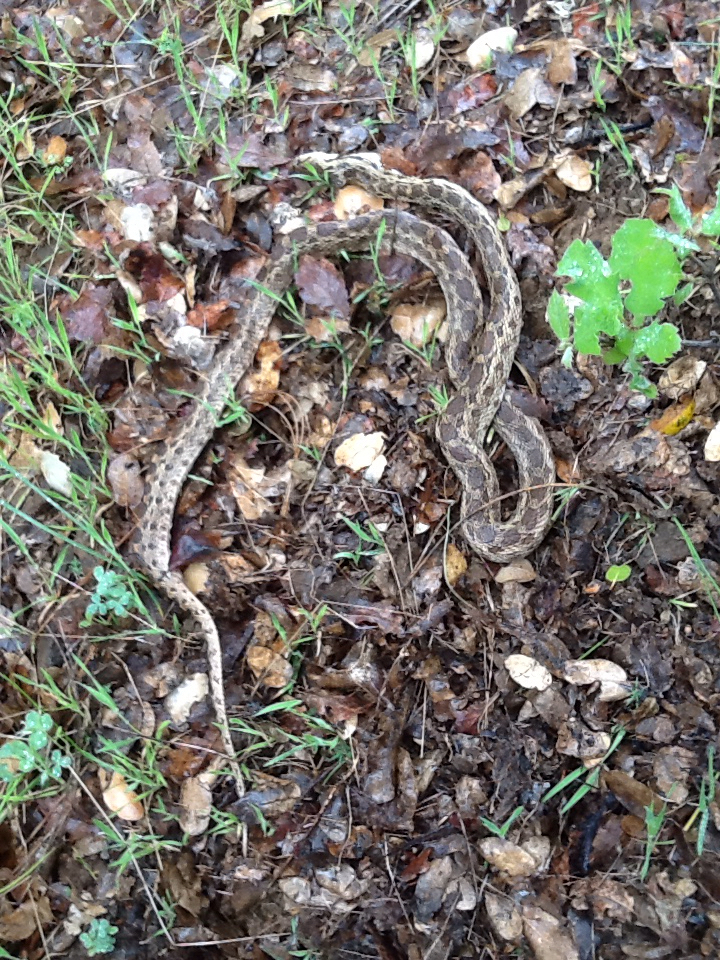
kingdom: Animalia
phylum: Chordata
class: Squamata
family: Colubridae
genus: Pituophis
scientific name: Pituophis catenifer
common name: Gopher snake
